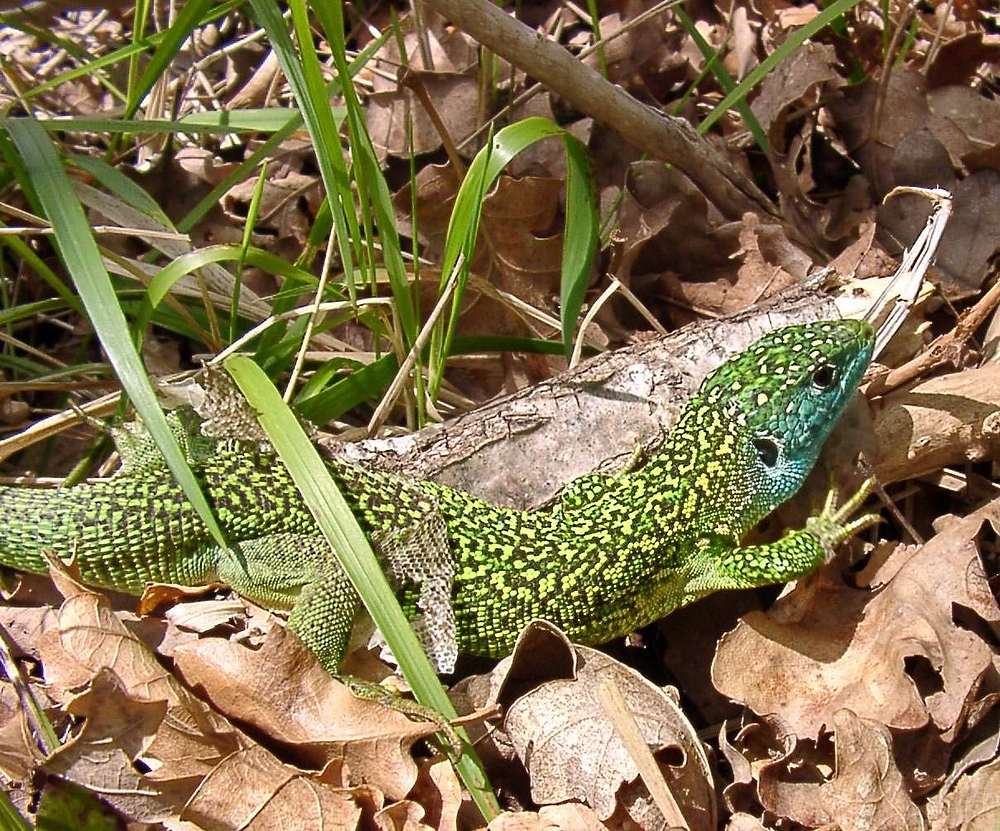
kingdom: Animalia
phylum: Chordata
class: Squamata
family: Lacertidae
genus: Lacerta
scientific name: Lacerta bilineata
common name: Western green lizard
